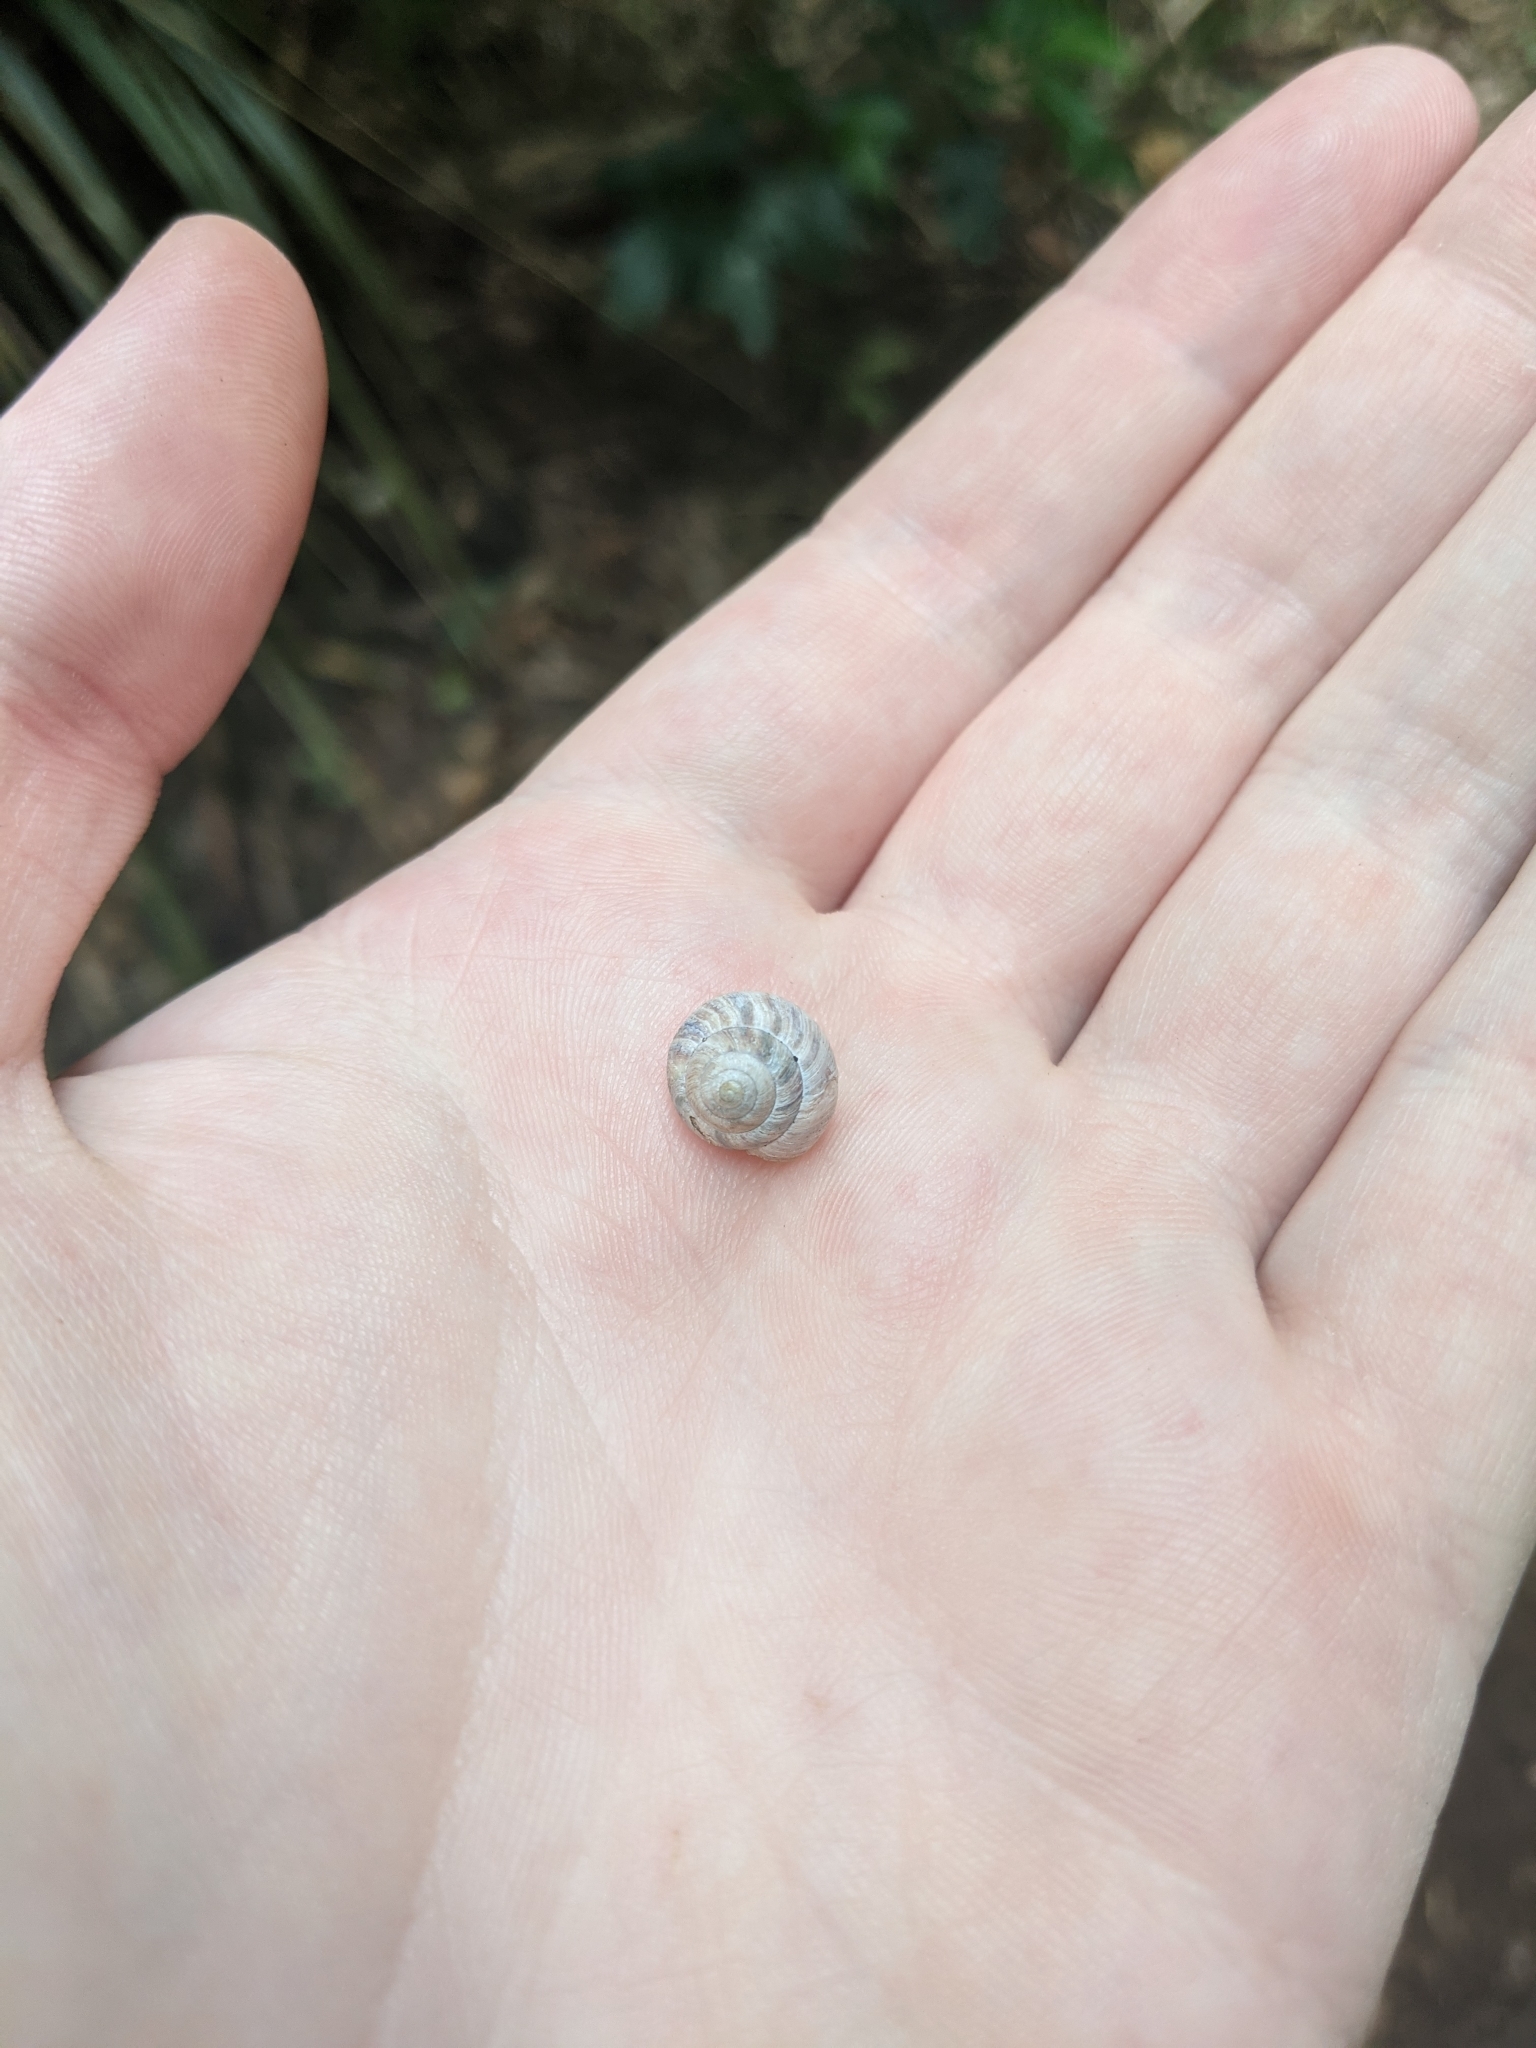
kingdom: Animalia
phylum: Mollusca
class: Gastropoda
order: Stylommatophora
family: Charopidae
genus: Serpho
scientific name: Serpho
